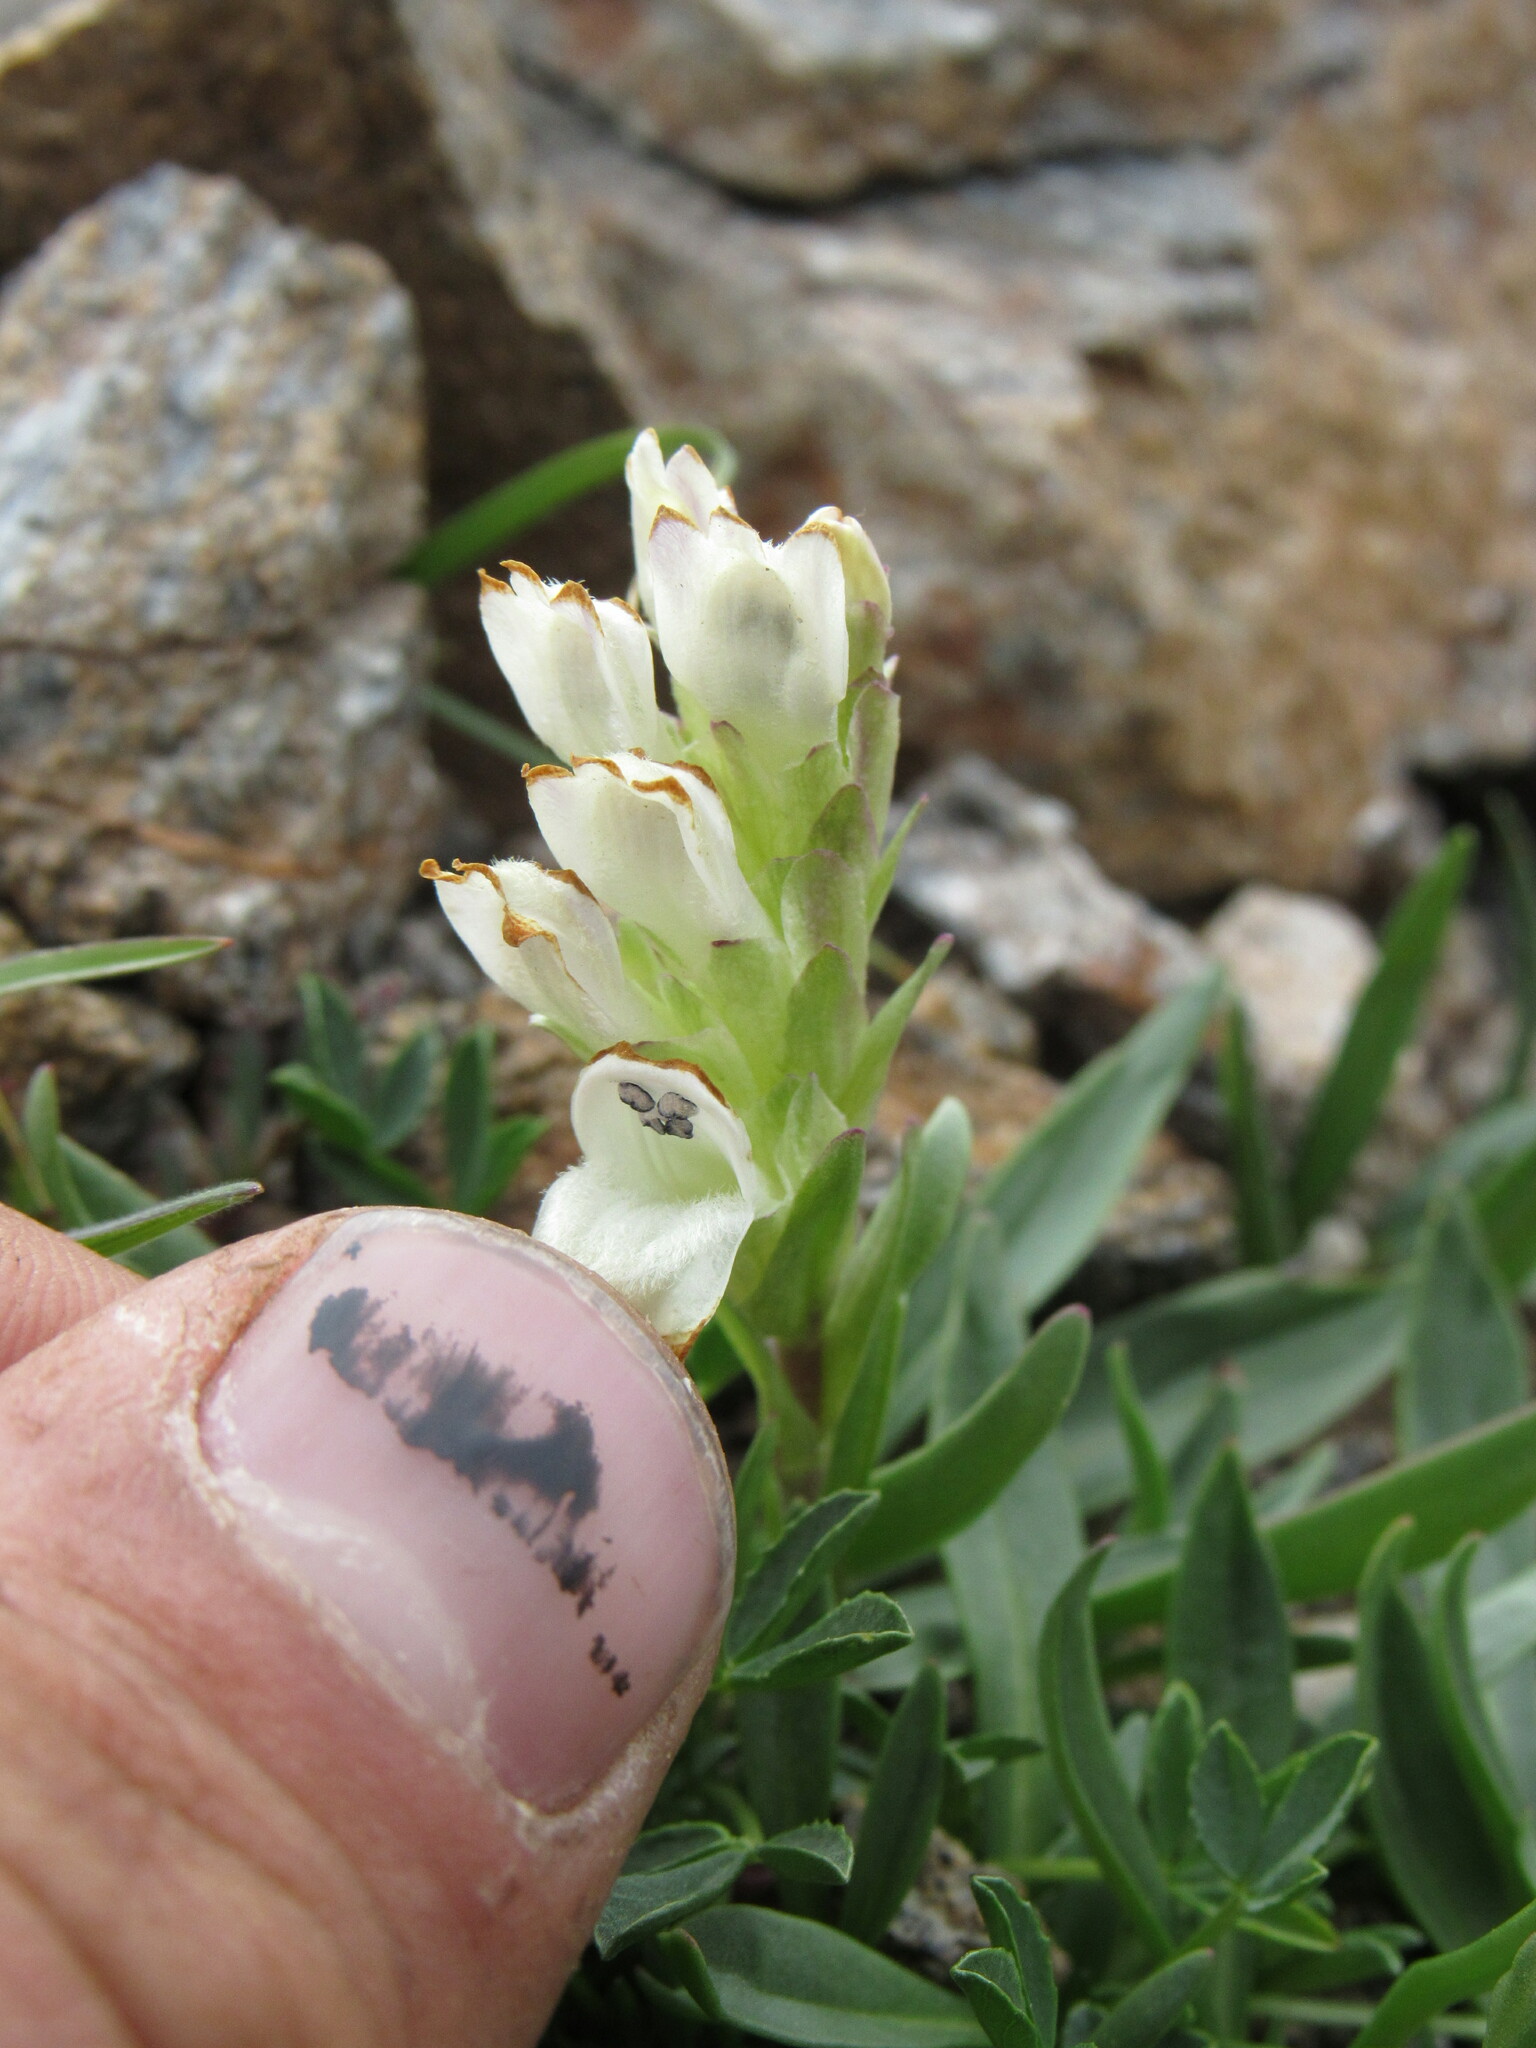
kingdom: Plantae
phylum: Tracheophyta
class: Magnoliopsida
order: Lamiales
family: Plantaginaceae
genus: Chionophila
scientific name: Chionophila jamesii
